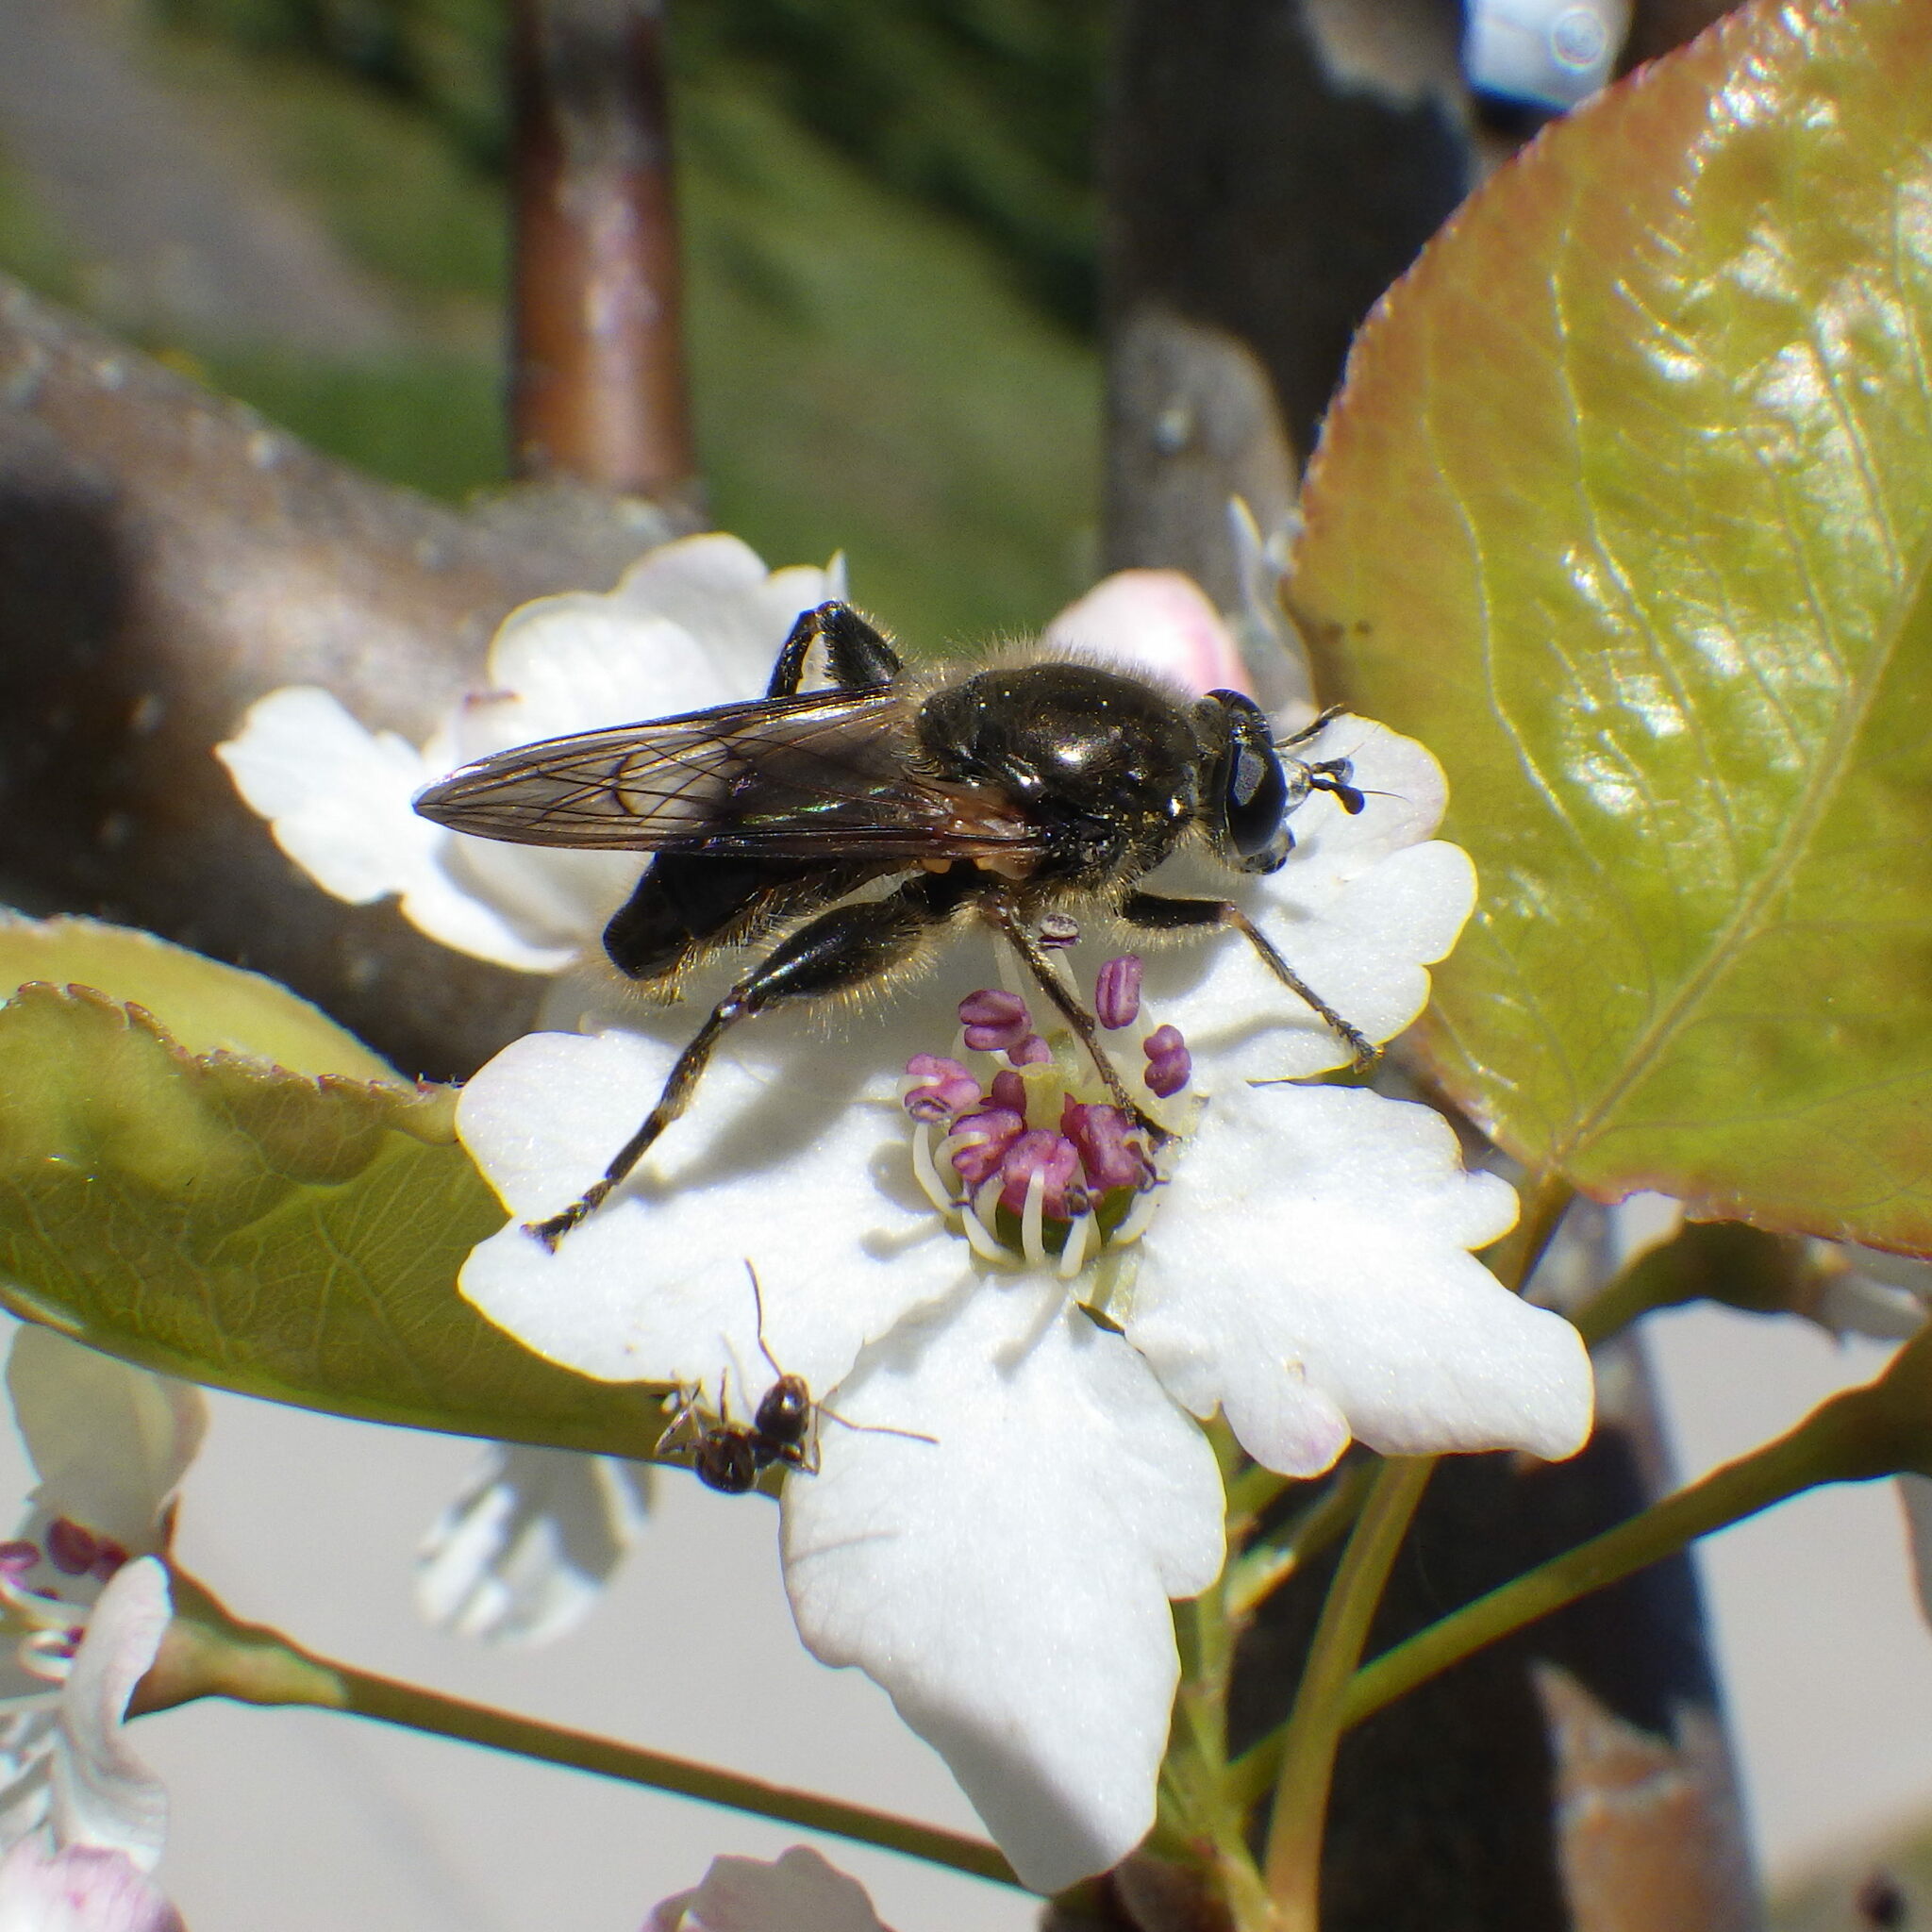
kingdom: Animalia
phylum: Arthropoda
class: Insecta
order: Diptera
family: Syrphidae
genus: Brachypalpus
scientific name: Brachypalpus oarus
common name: Eastern catkin fly
